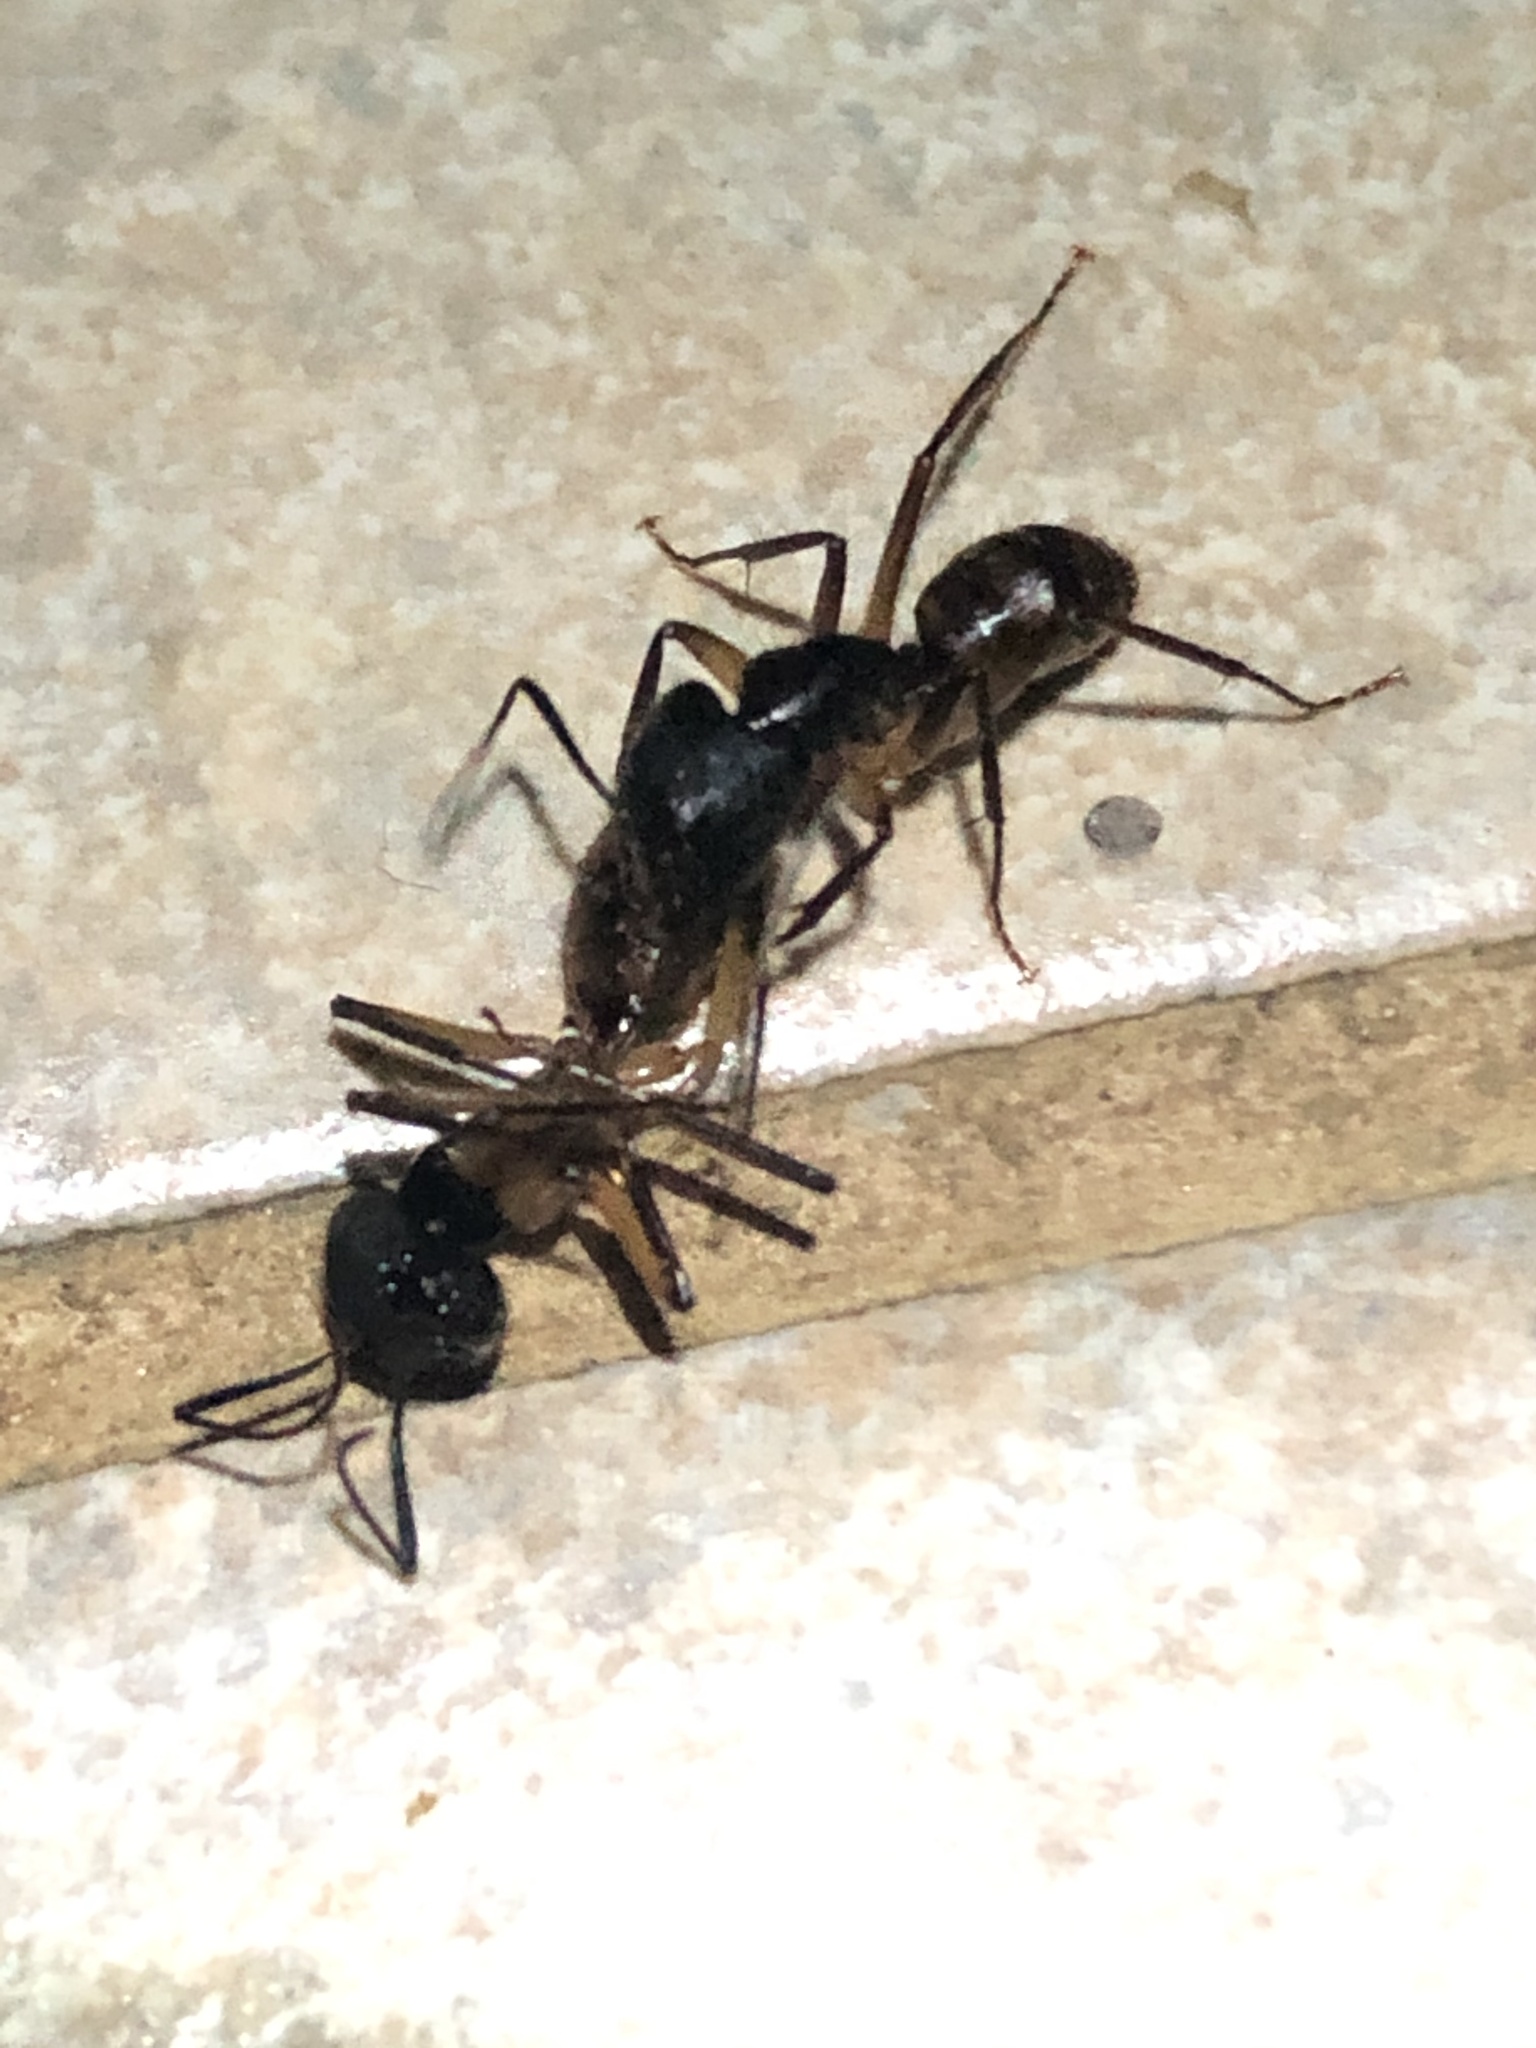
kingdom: Animalia
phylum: Arthropoda
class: Insecta
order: Hymenoptera
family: Formicidae
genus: Camponotus
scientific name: Camponotus atriceps
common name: Florida carpenter ant
